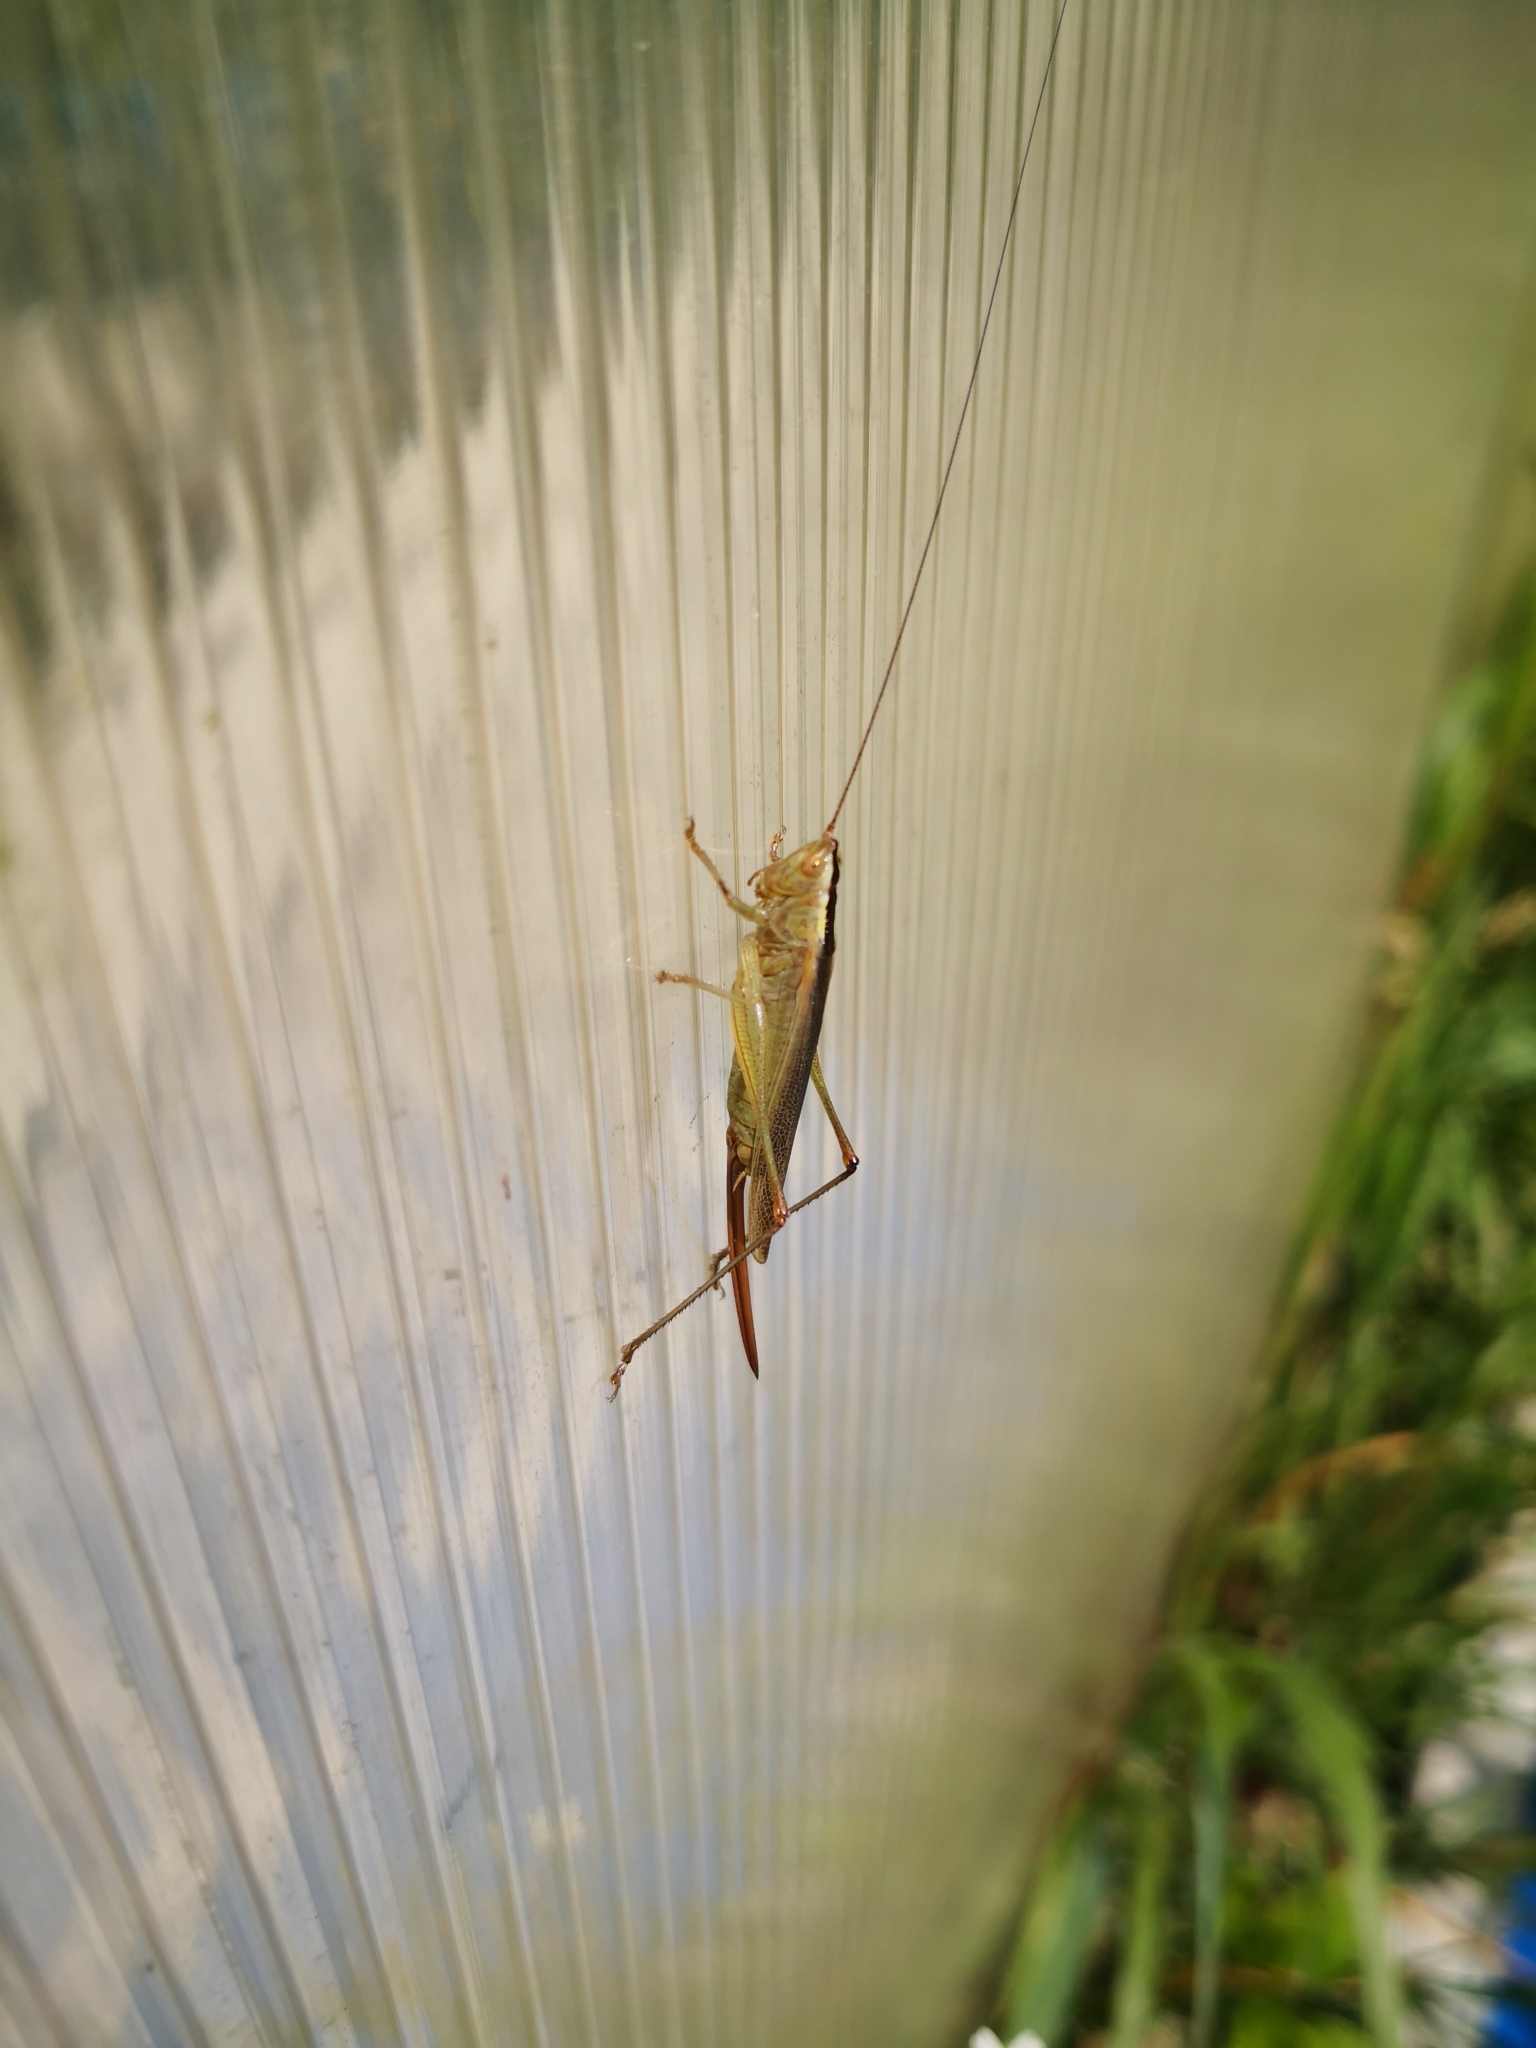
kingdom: Animalia
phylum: Arthropoda
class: Insecta
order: Orthoptera
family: Tettigoniidae
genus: Conocephalus
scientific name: Conocephalus fuscus
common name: Long-winged conehead
